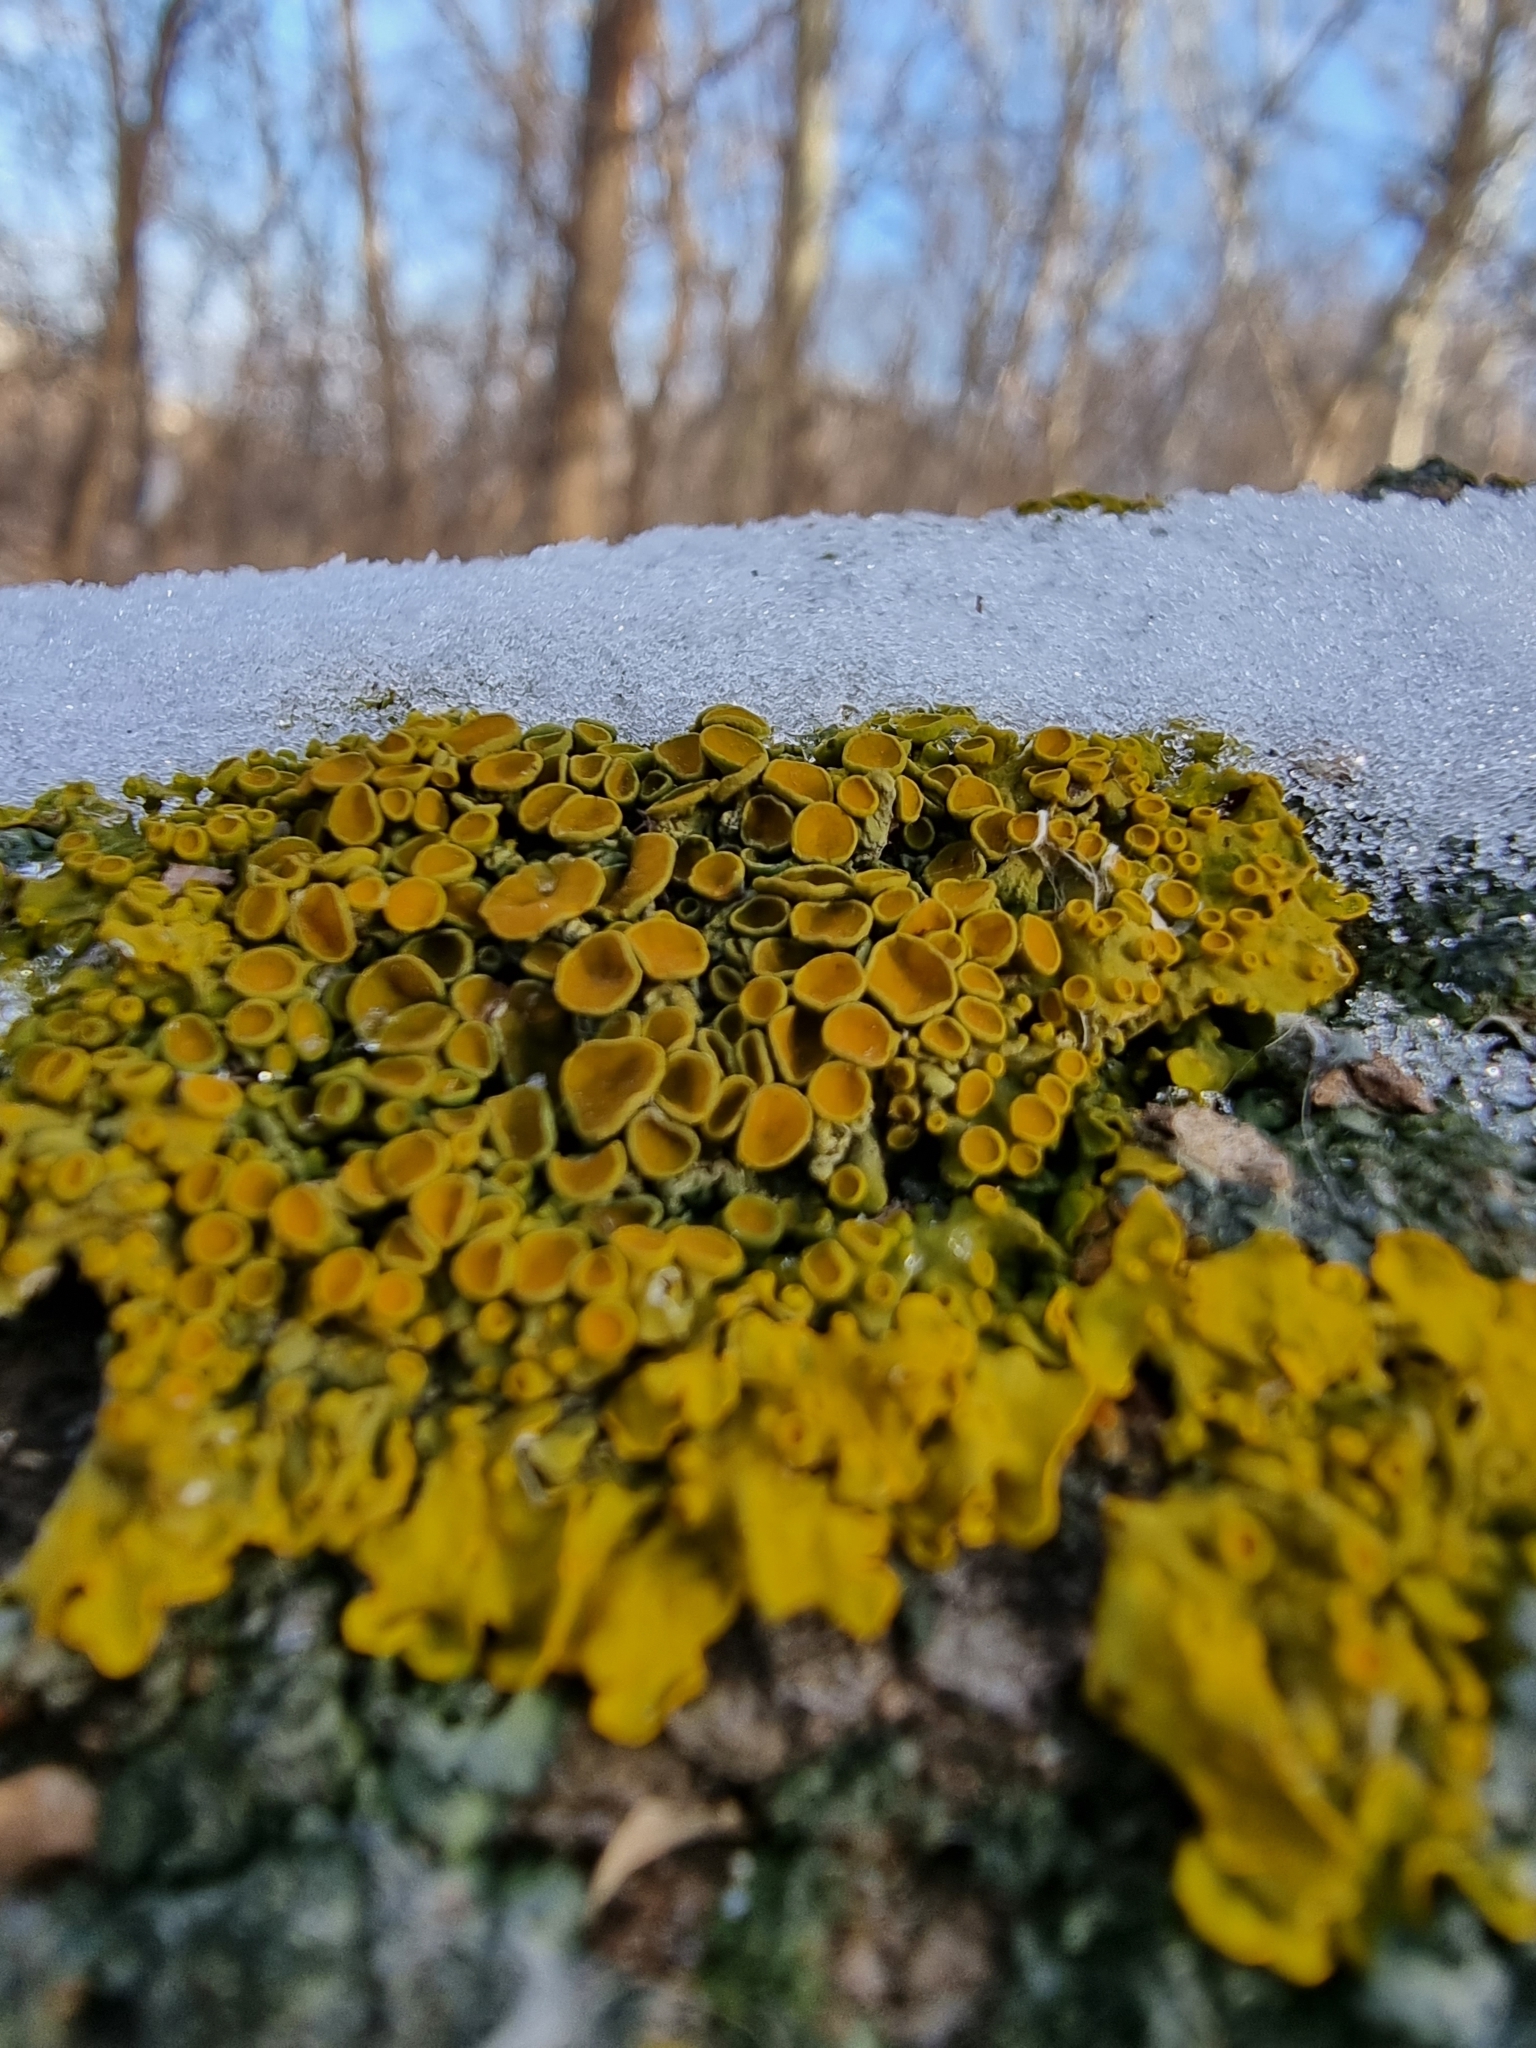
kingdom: Fungi
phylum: Ascomycota
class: Lecanoromycetes
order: Teloschistales
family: Teloschistaceae
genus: Xanthoria
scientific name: Xanthoria parietina
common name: Common orange lichen
